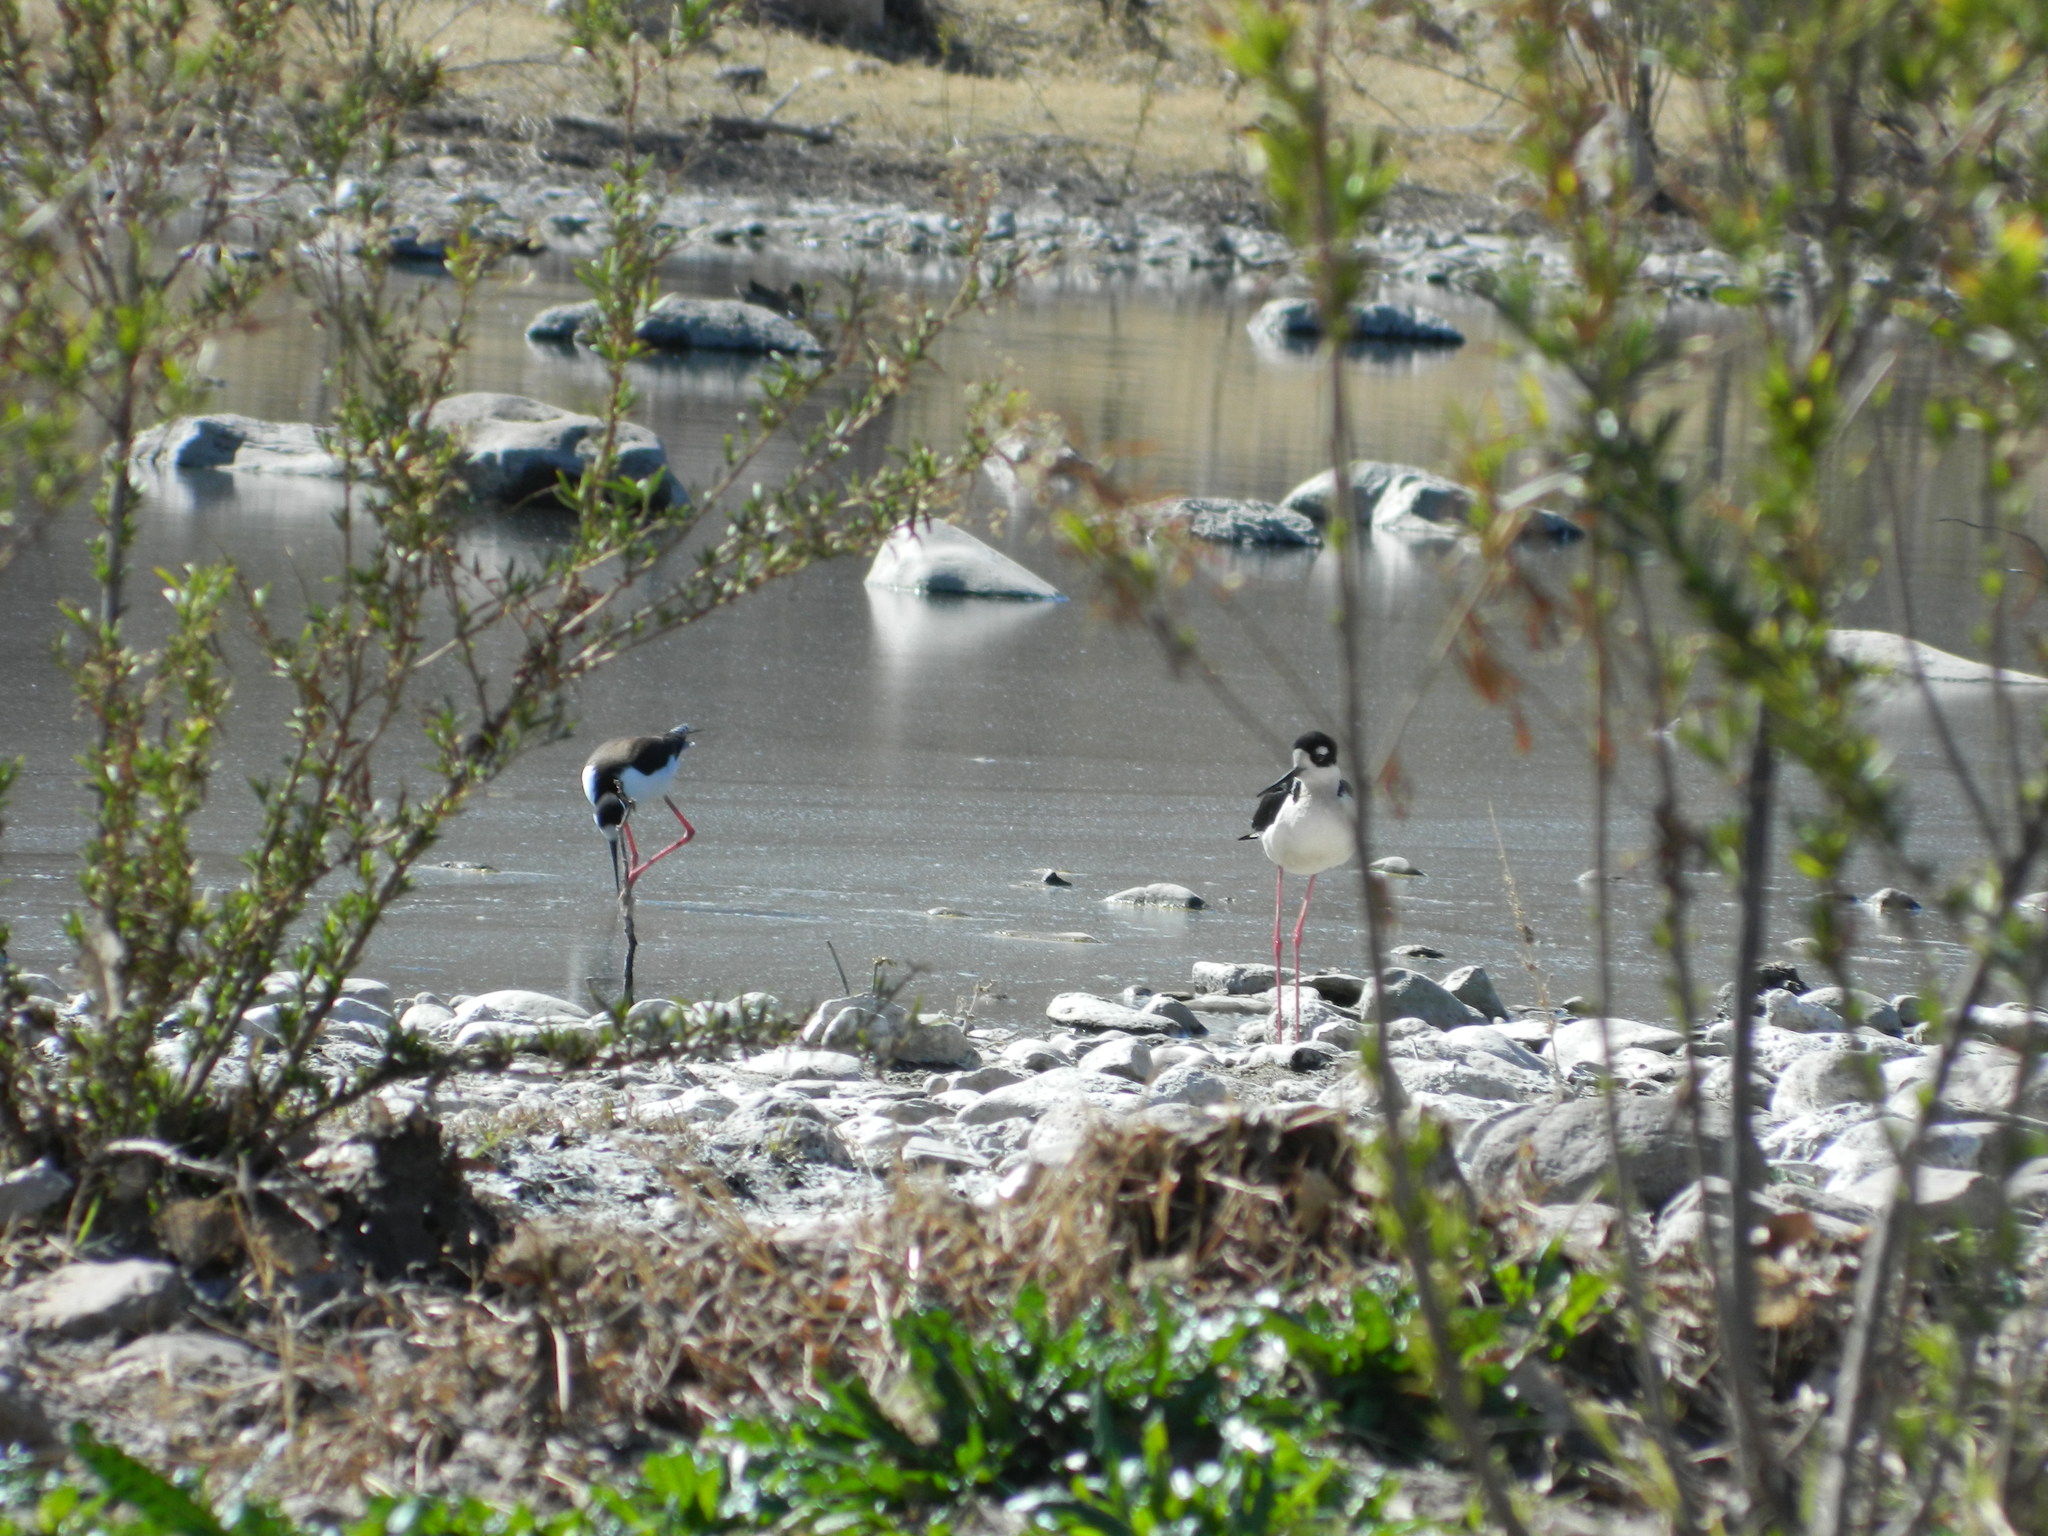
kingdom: Animalia
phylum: Chordata
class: Aves
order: Charadriiformes
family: Recurvirostridae
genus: Himantopus
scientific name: Himantopus mexicanus
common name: Black-necked stilt
